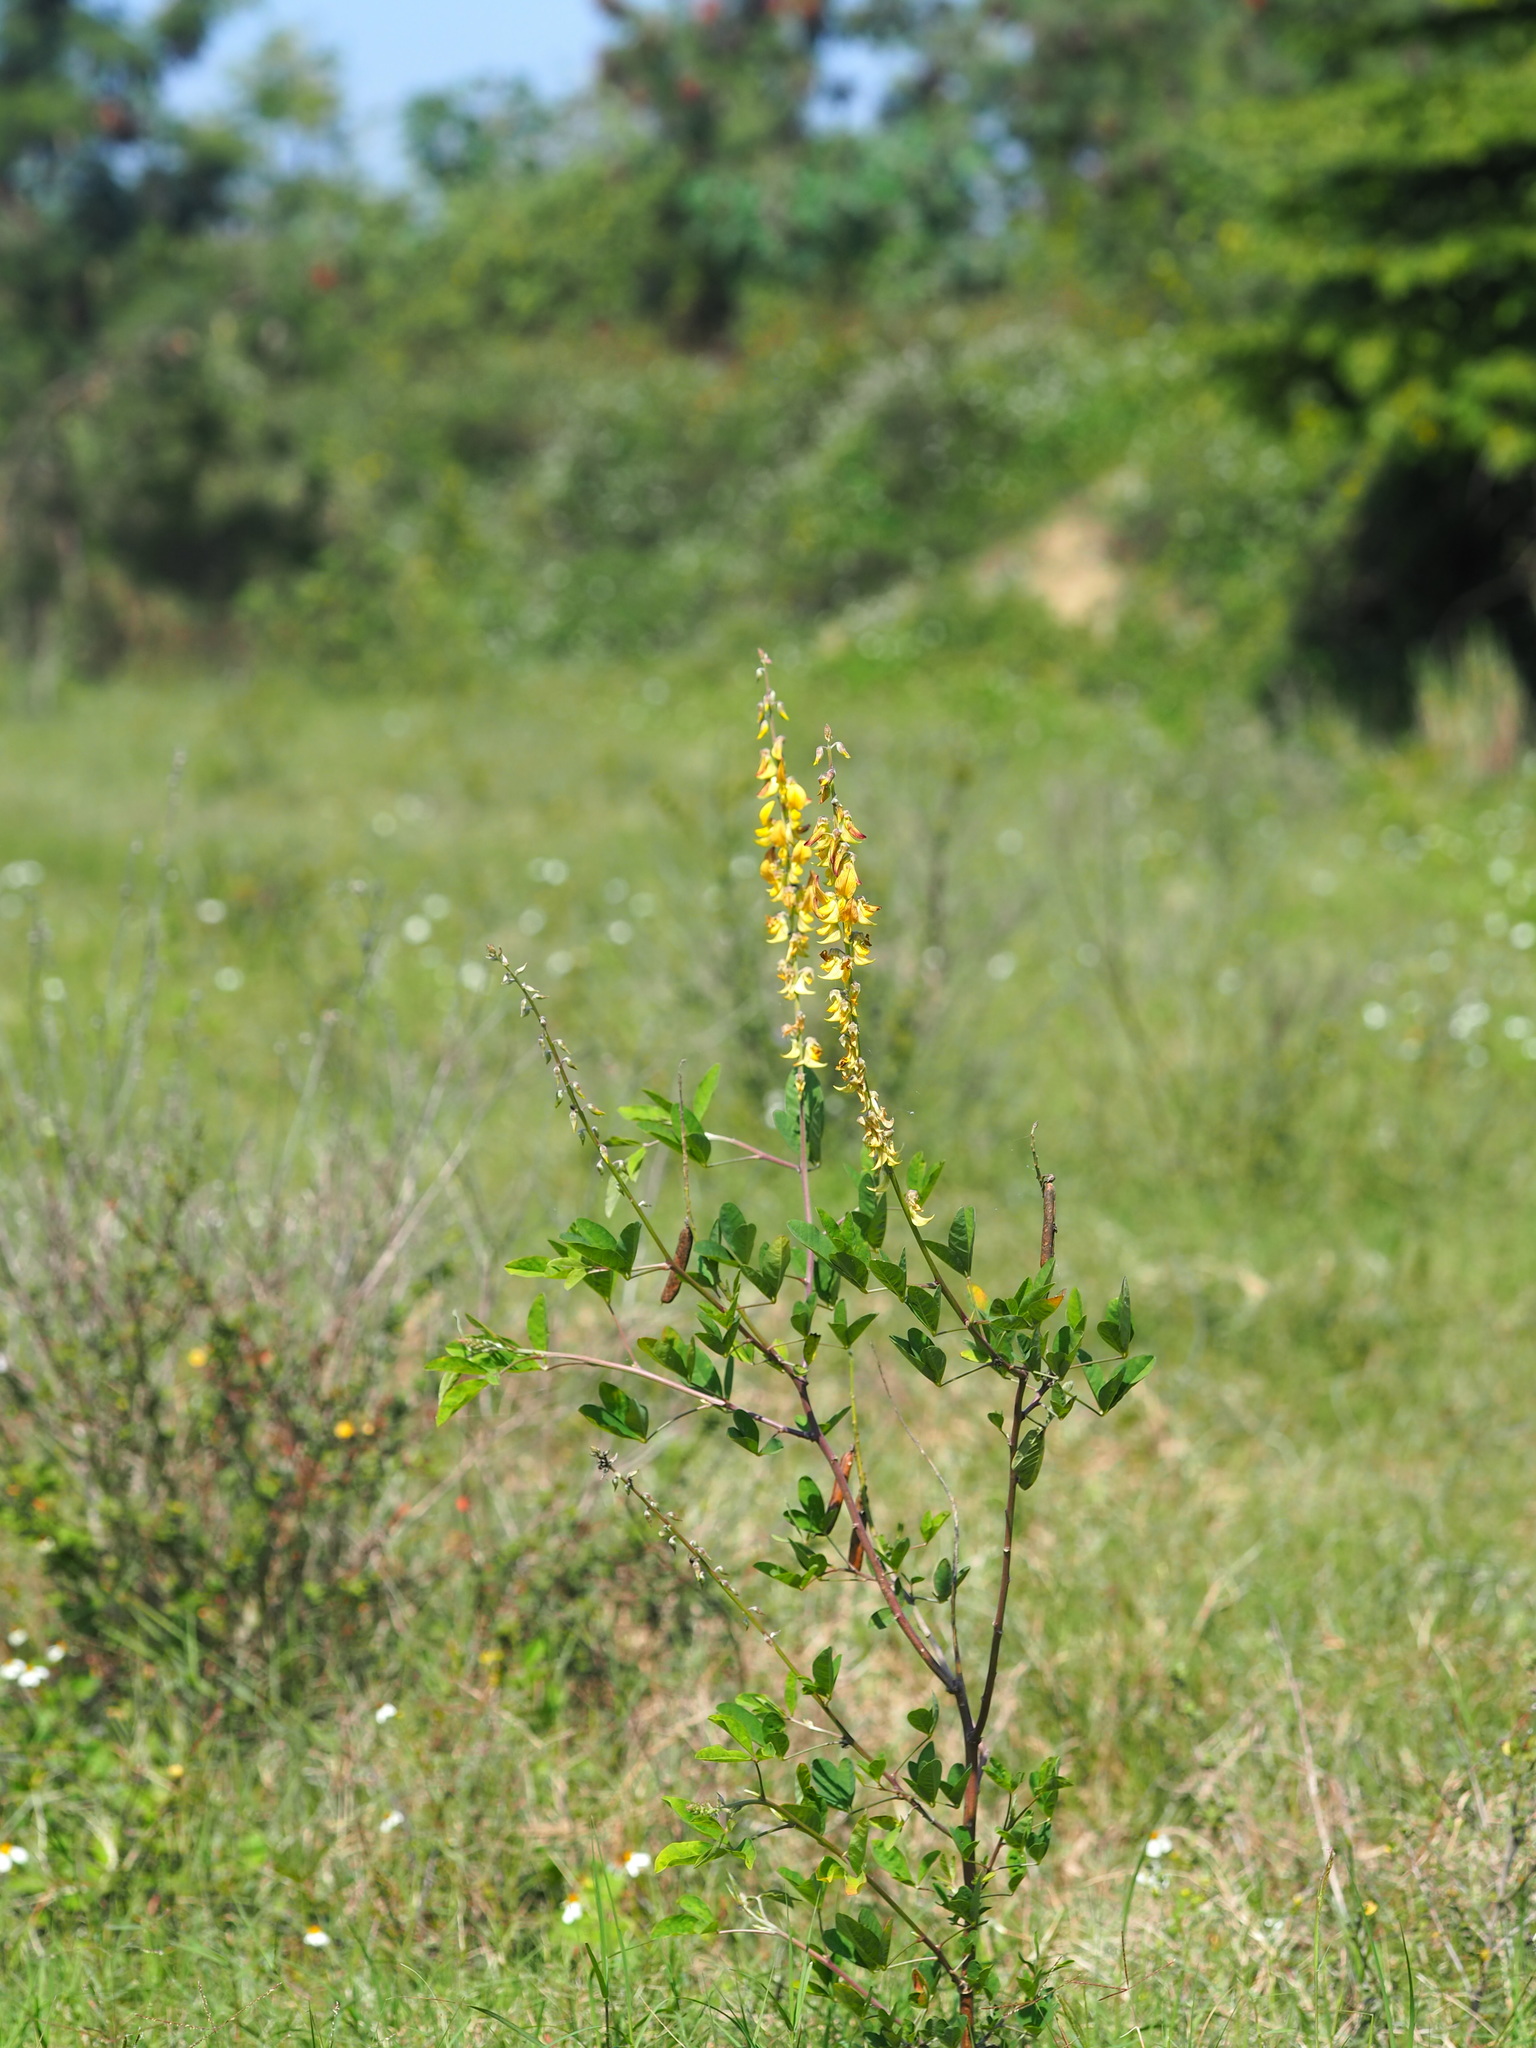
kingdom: Plantae
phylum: Tracheophyta
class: Magnoliopsida
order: Fabales
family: Fabaceae
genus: Crotalaria
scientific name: Crotalaria pallida
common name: Smooth rattlebox
